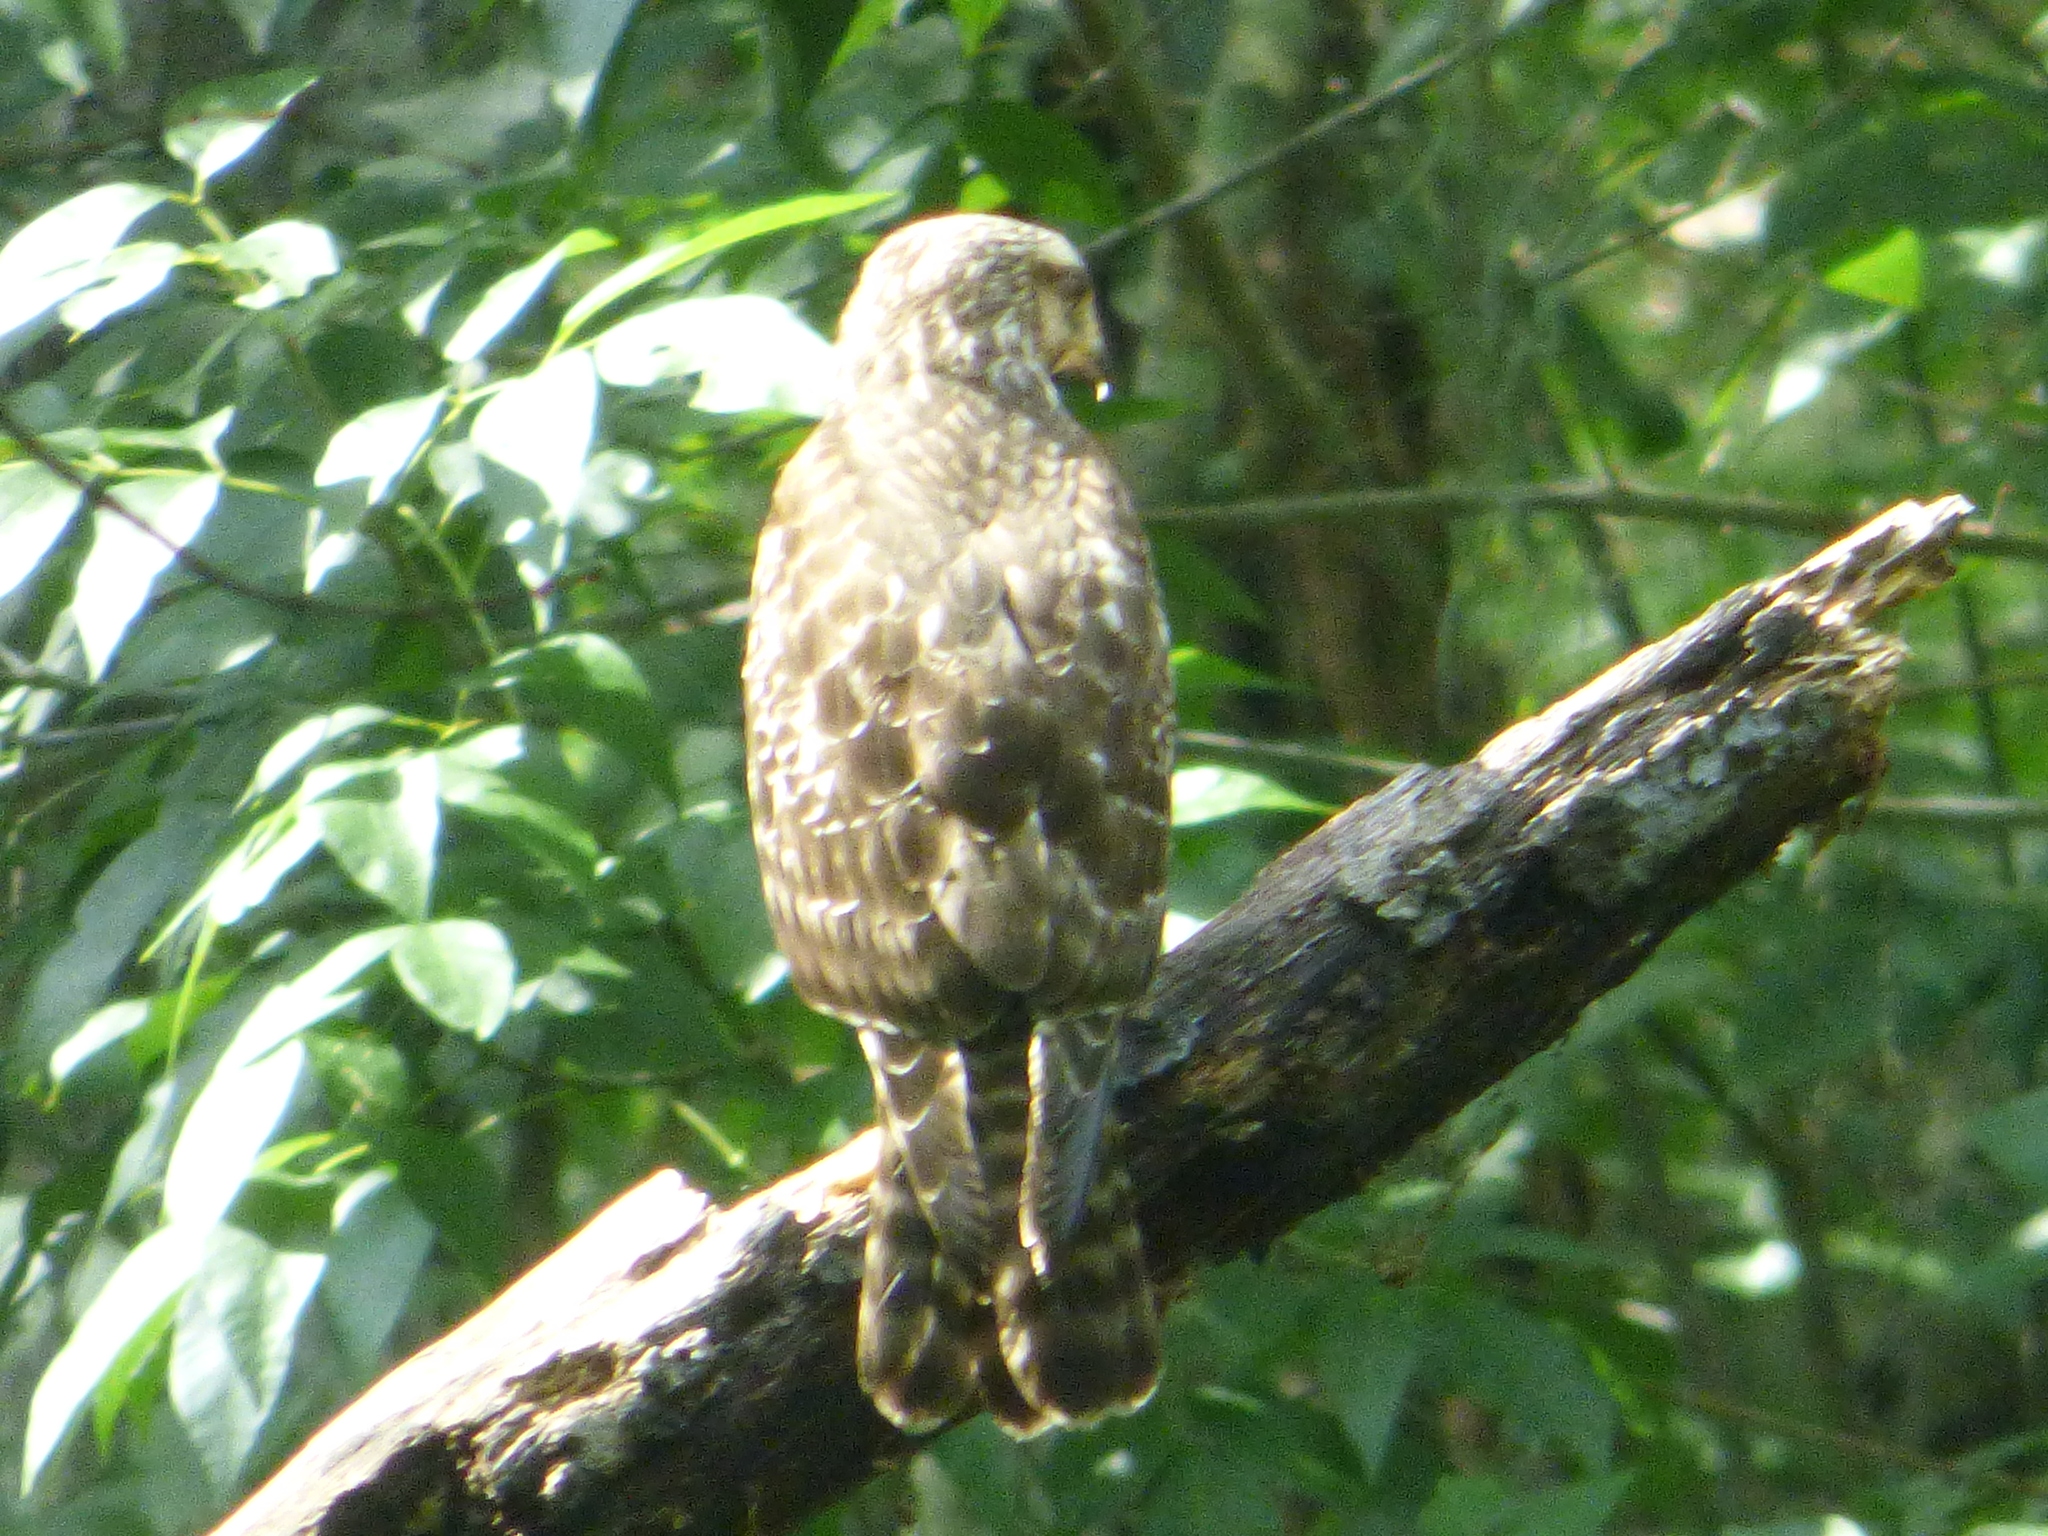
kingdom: Animalia
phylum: Chordata
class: Aves
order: Accipitriformes
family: Accipitridae
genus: Buteo
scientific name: Buteo lineatus
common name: Red-shouldered hawk
